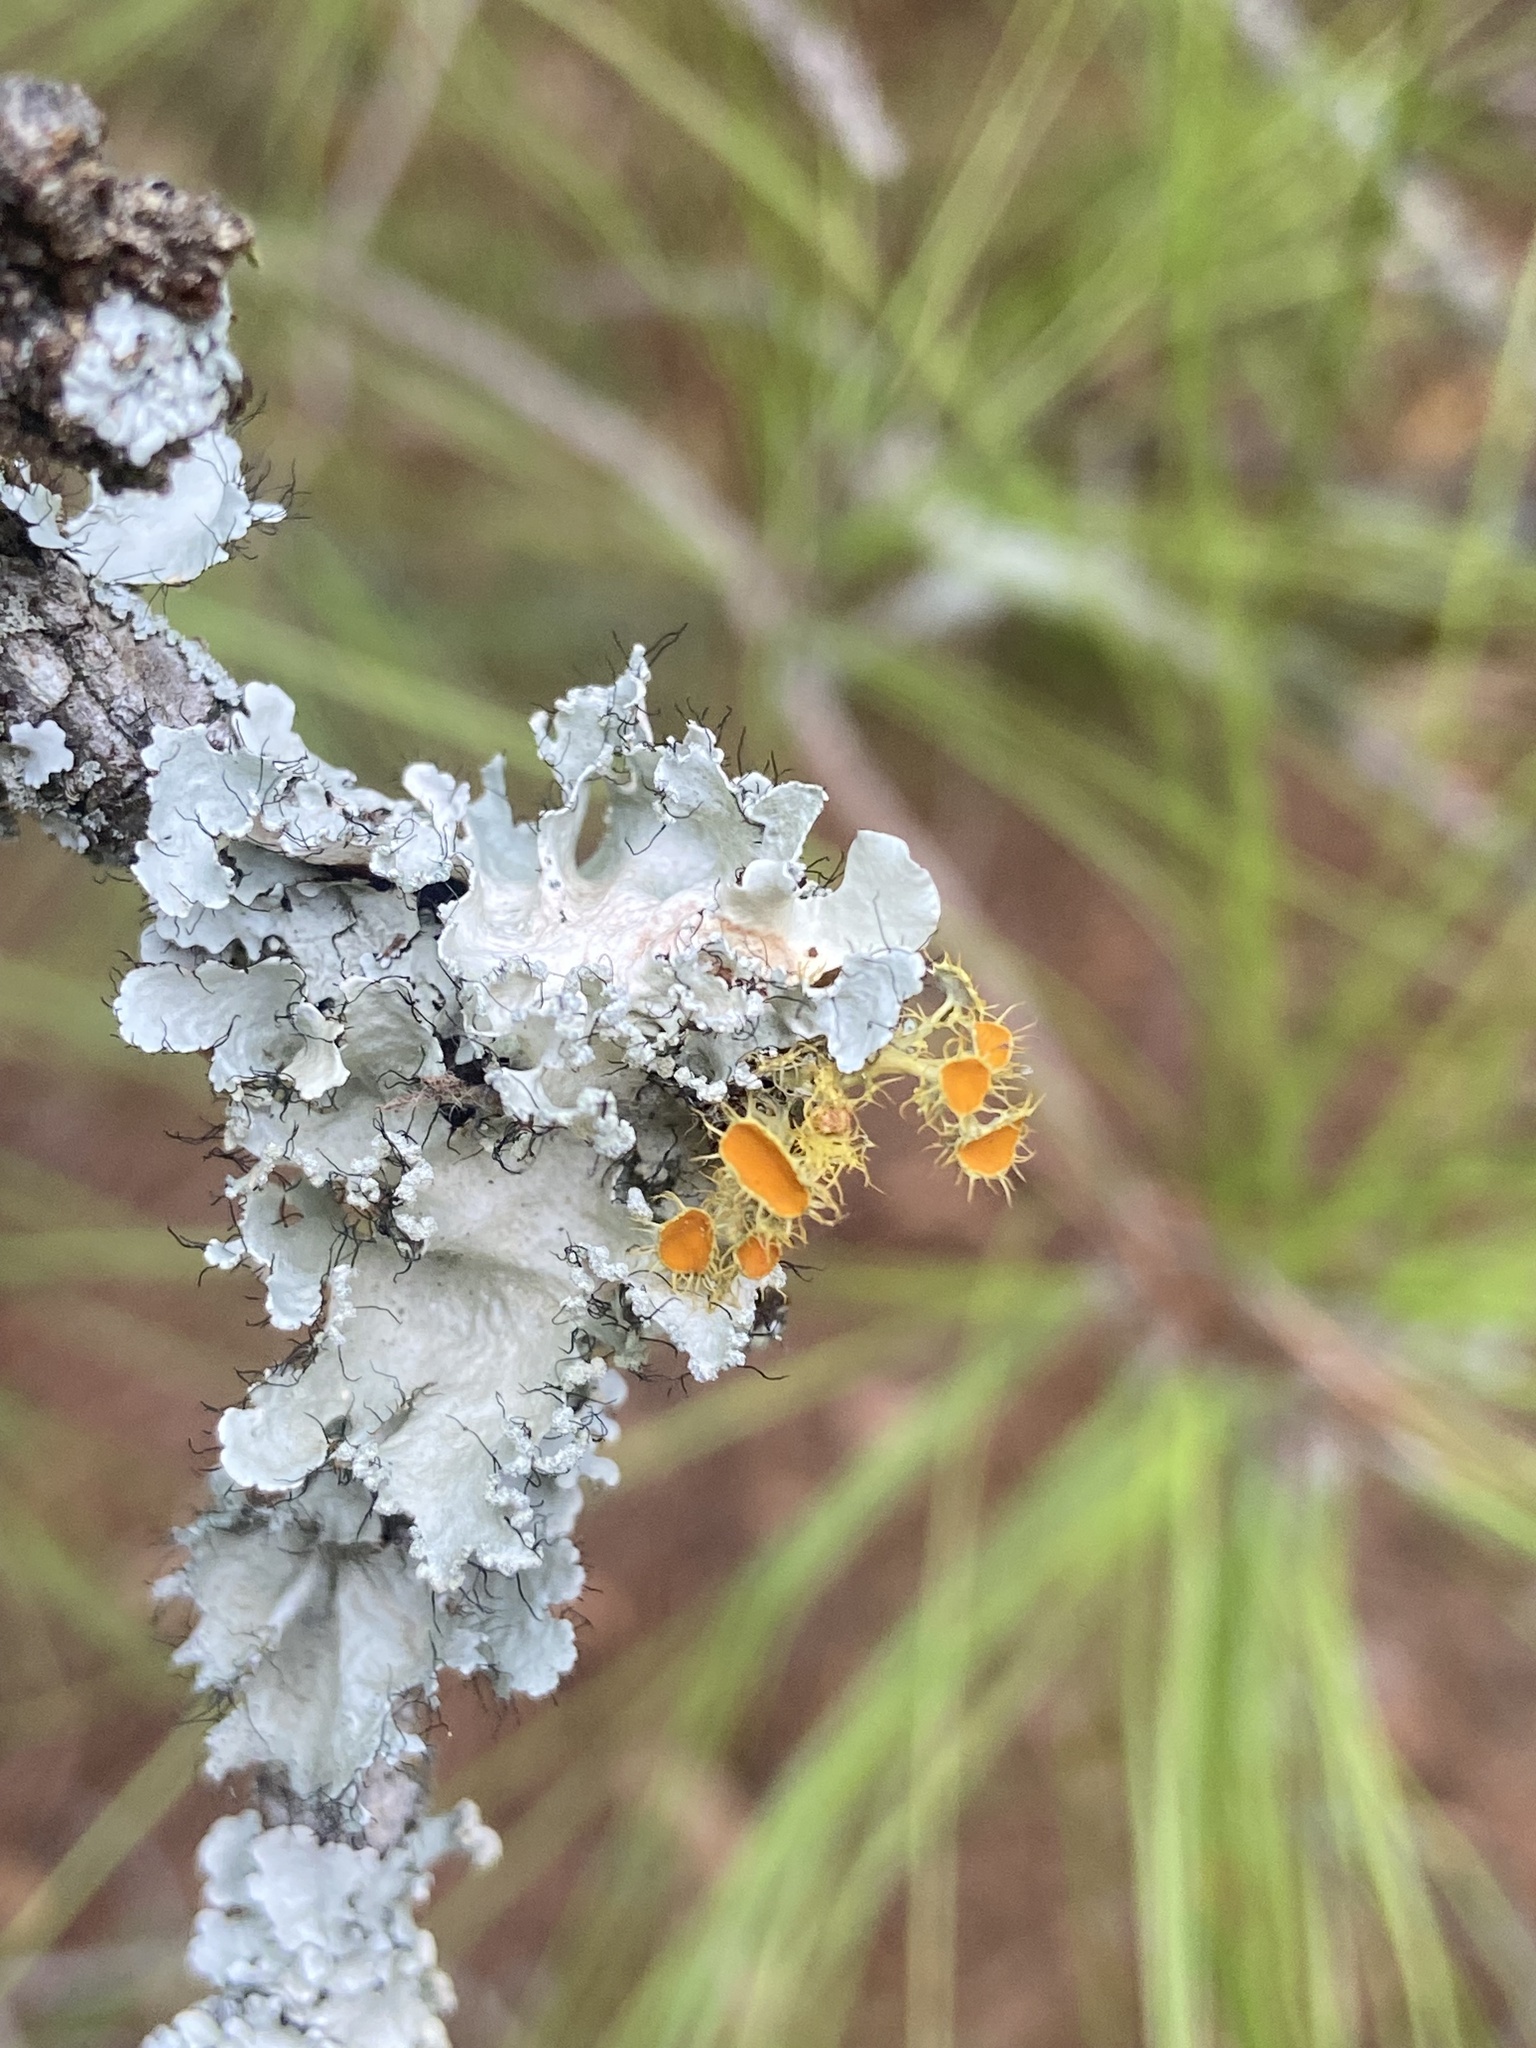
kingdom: Fungi
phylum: Ascomycota
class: Lecanoromycetes
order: Teloschistales
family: Teloschistaceae
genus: Niorma
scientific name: Niorma chrysophthalma
